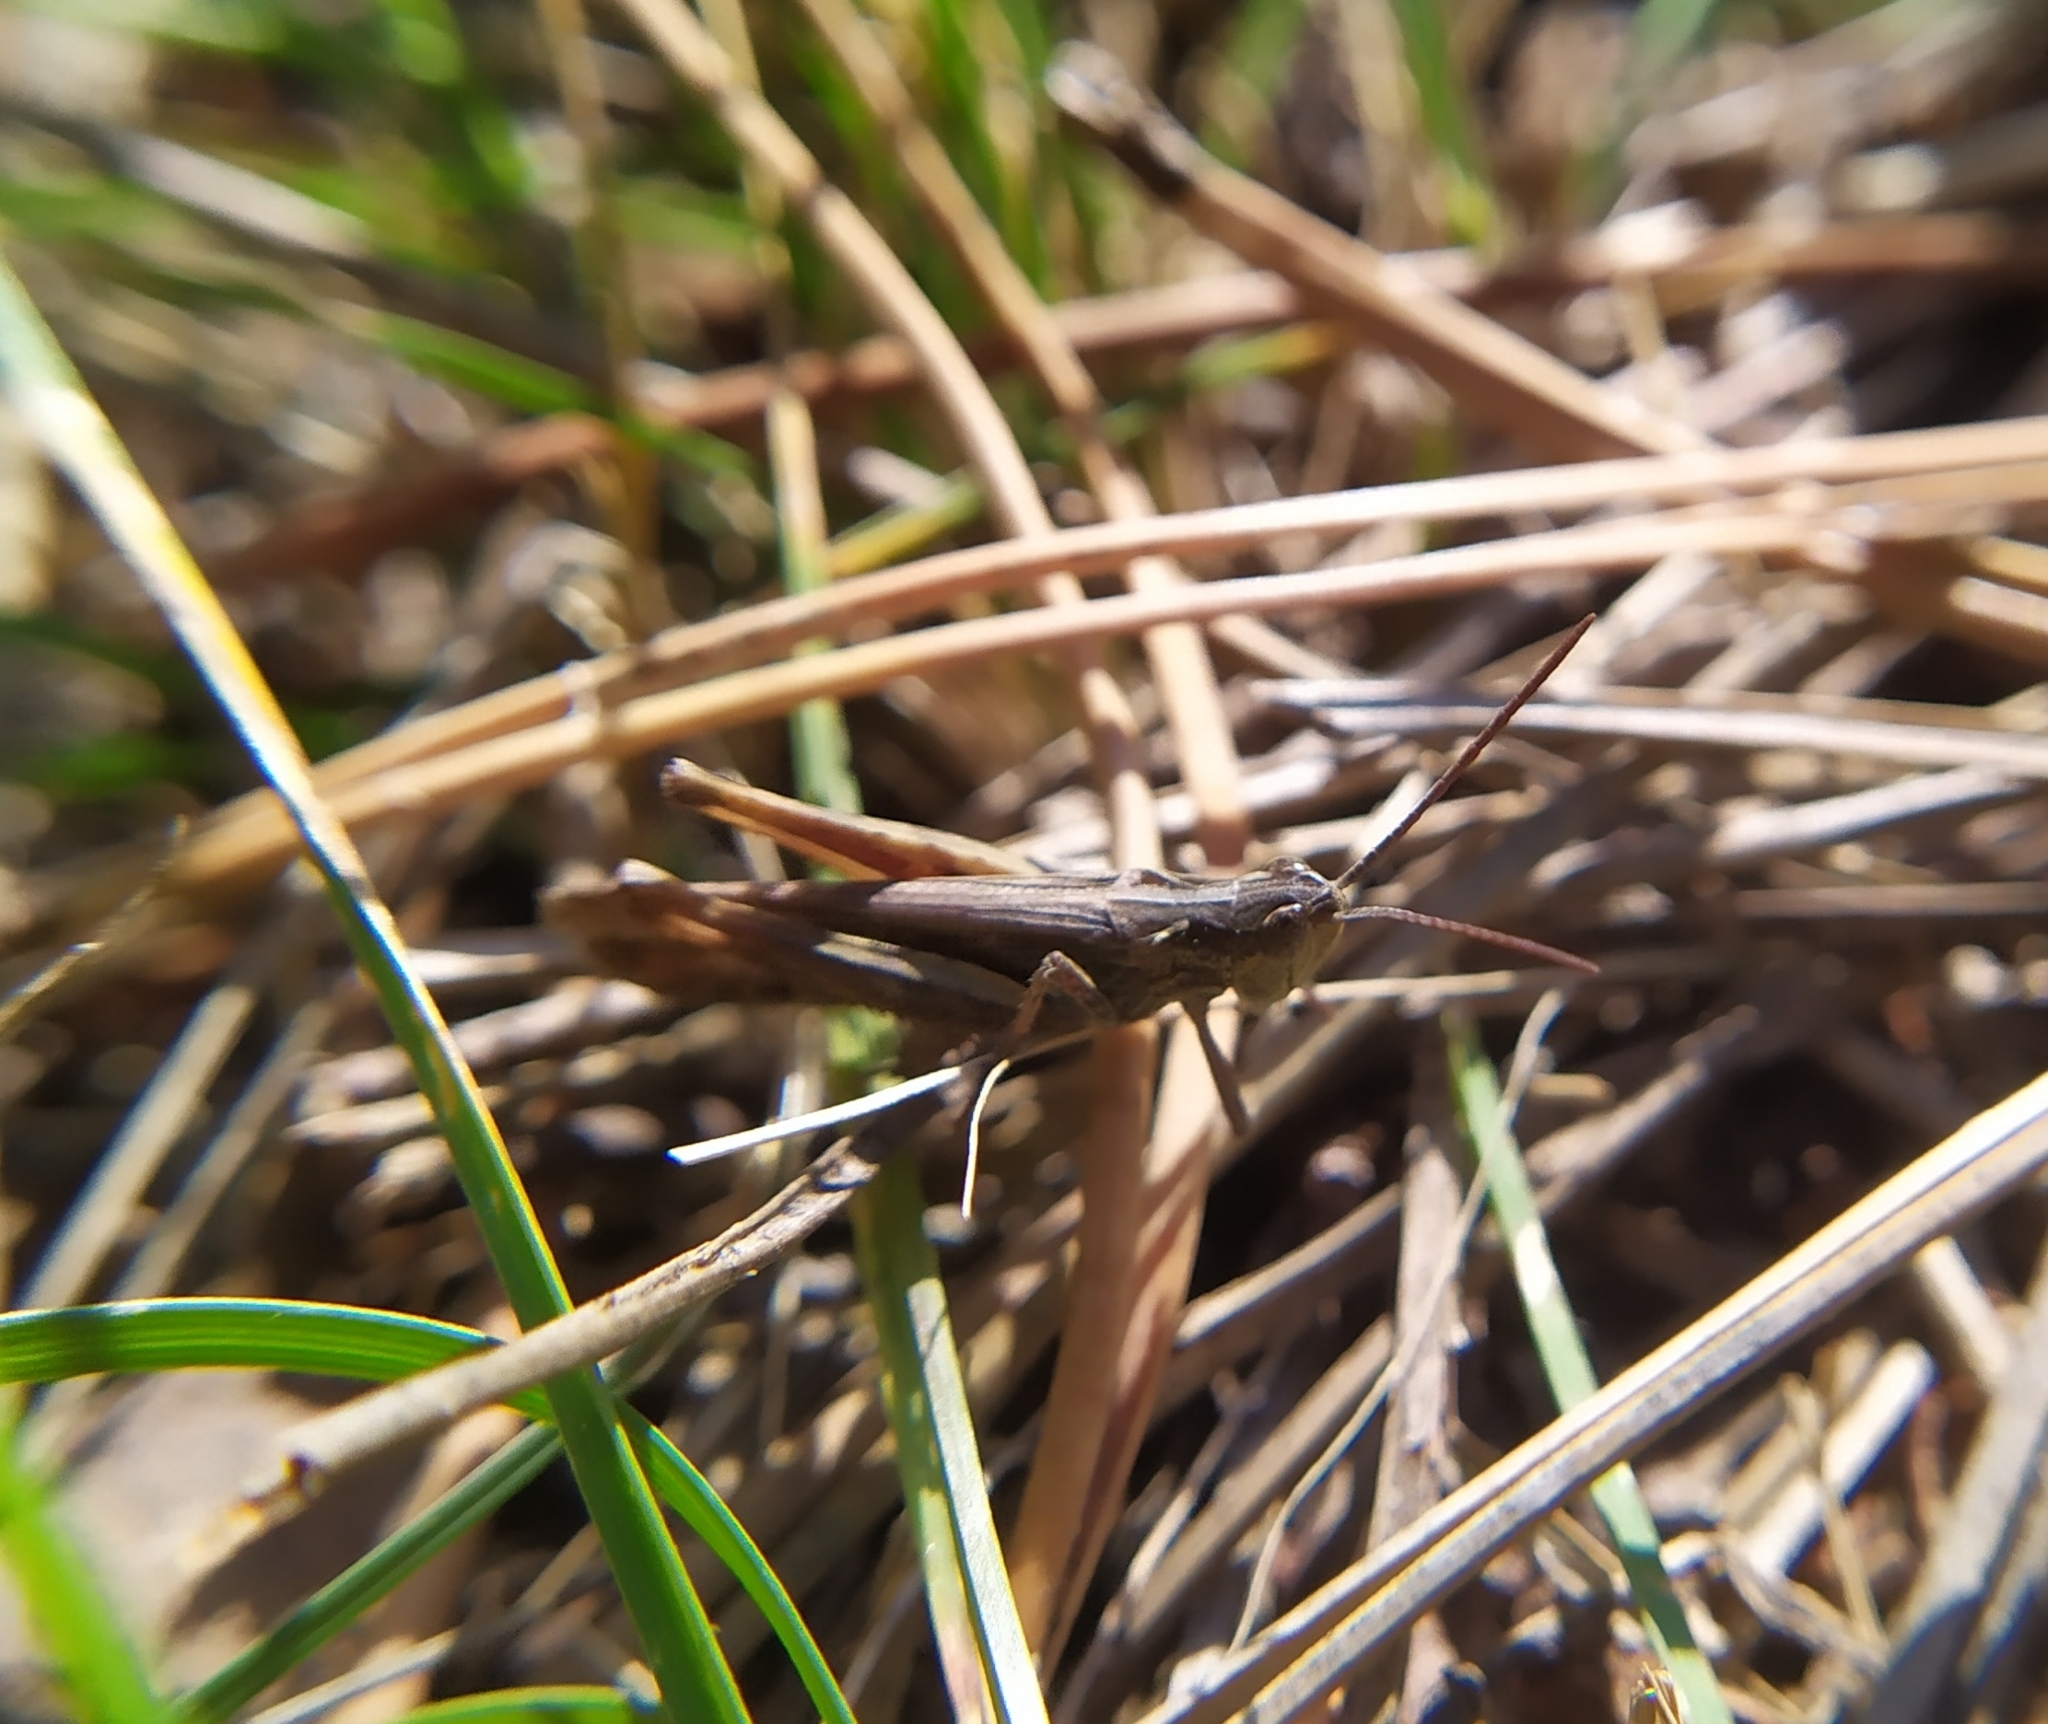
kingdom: Animalia
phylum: Arthropoda
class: Insecta
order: Orthoptera
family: Acrididae
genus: Chorthippus
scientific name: Chorthippus mollis
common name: Lesser field grasshopper
